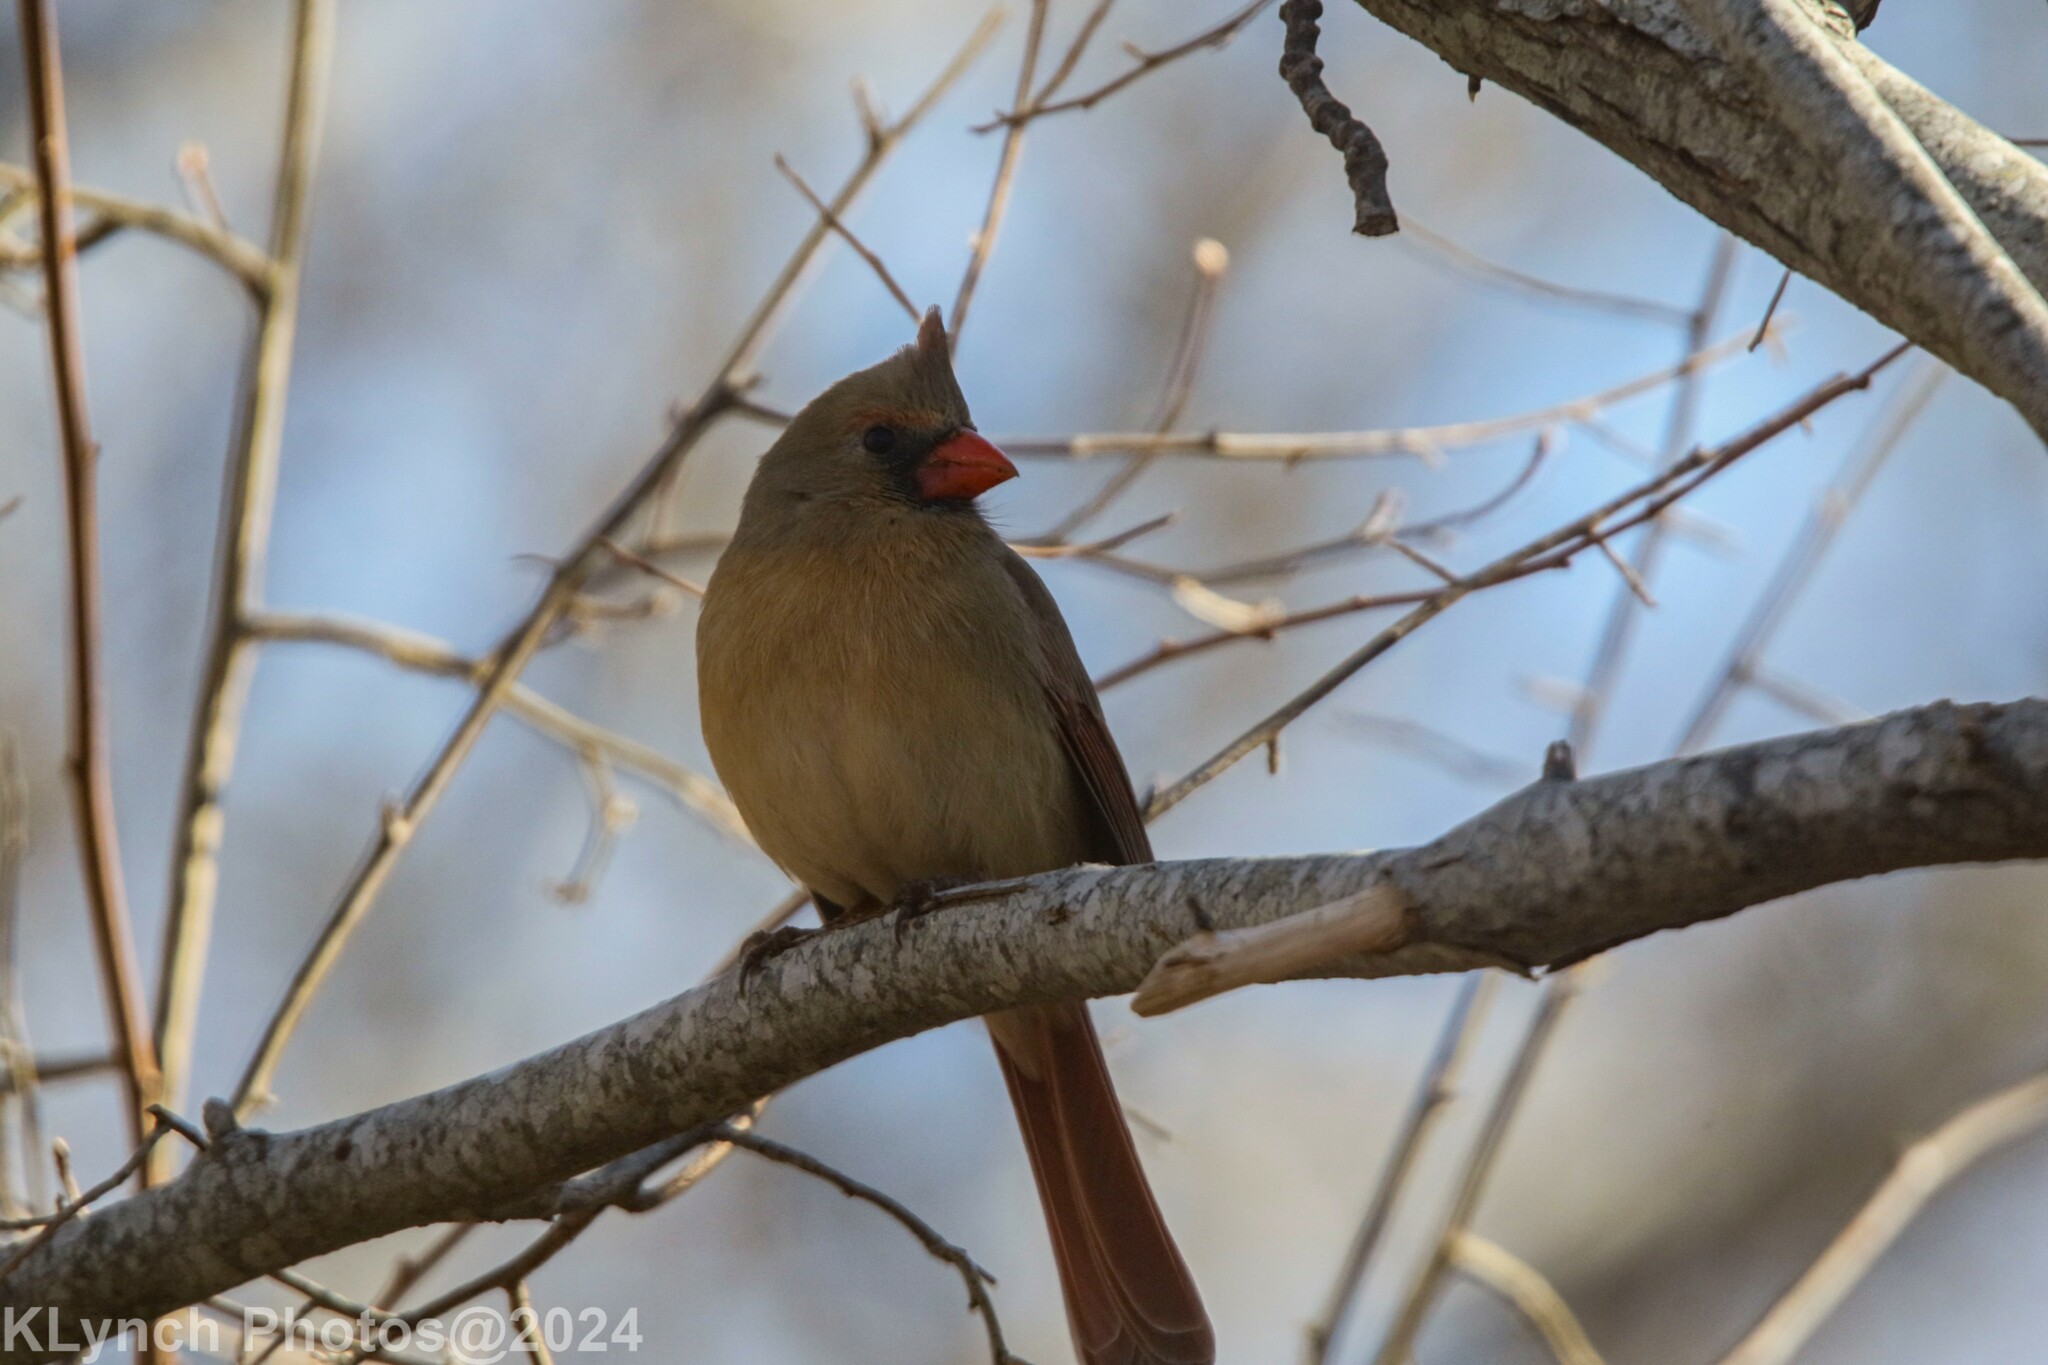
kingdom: Animalia
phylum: Chordata
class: Aves
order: Passeriformes
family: Cardinalidae
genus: Cardinalis
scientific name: Cardinalis cardinalis
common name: Northern cardinal
